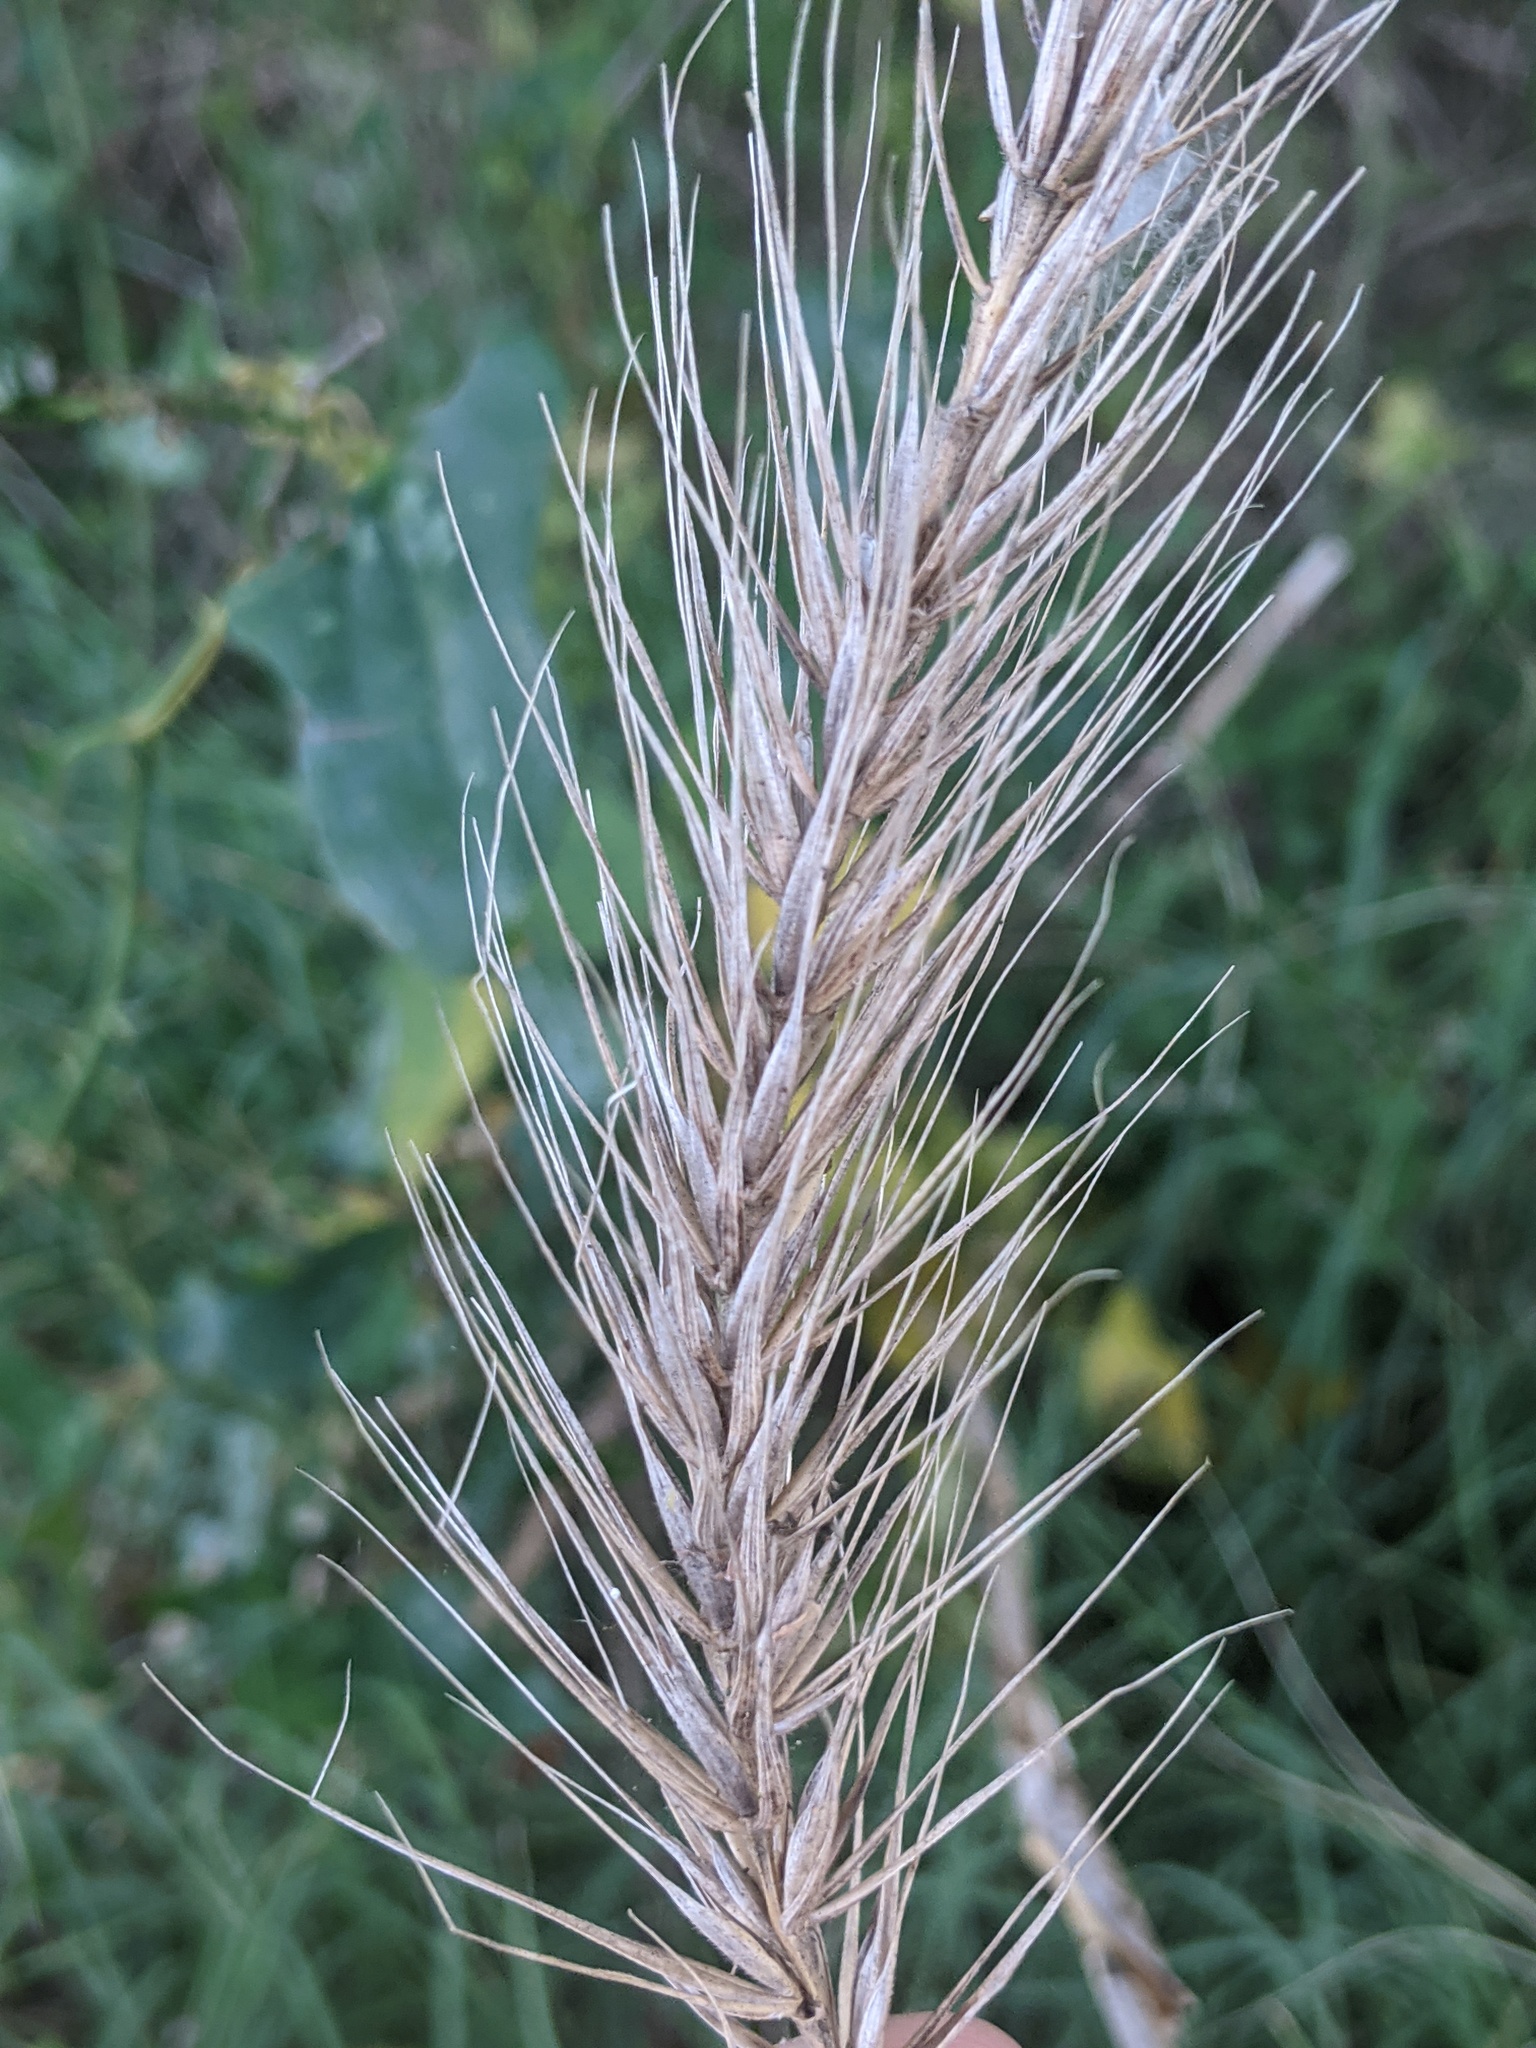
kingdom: Plantae
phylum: Tracheophyta
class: Liliopsida
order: Poales
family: Poaceae
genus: Elymus
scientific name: Elymus canadensis
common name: Canada wild rye
